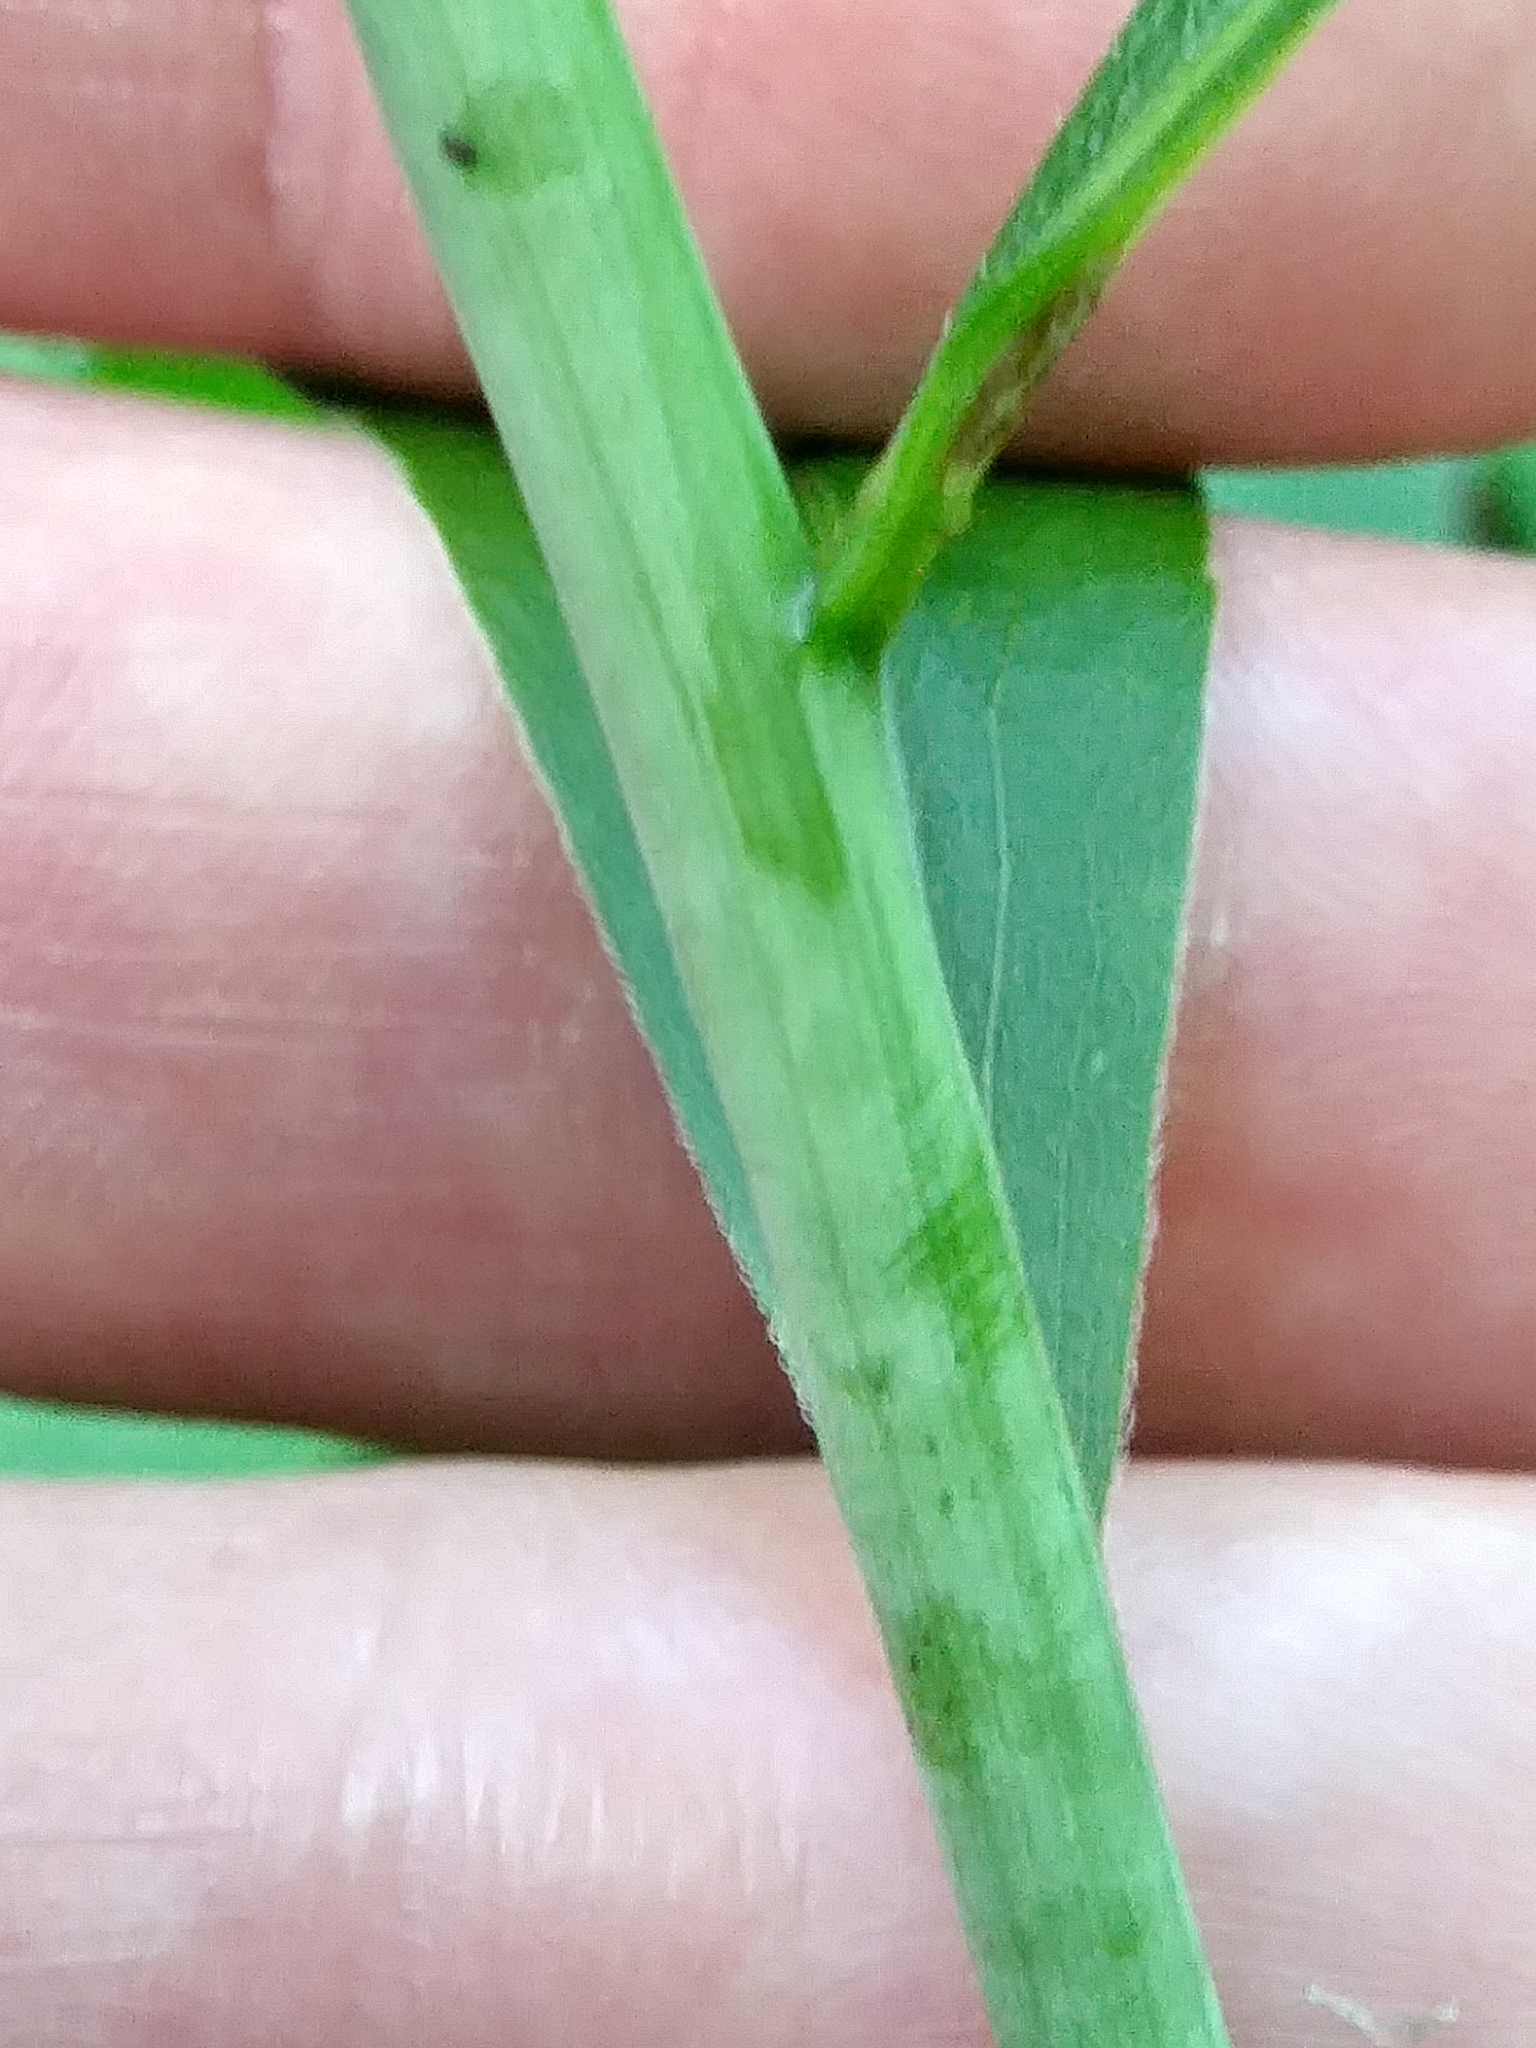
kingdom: Plantae
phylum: Tracheophyta
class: Magnoliopsida
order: Asterales
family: Asteraceae
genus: Solidago
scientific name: Solidago gigantea
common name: Giant goldenrod
